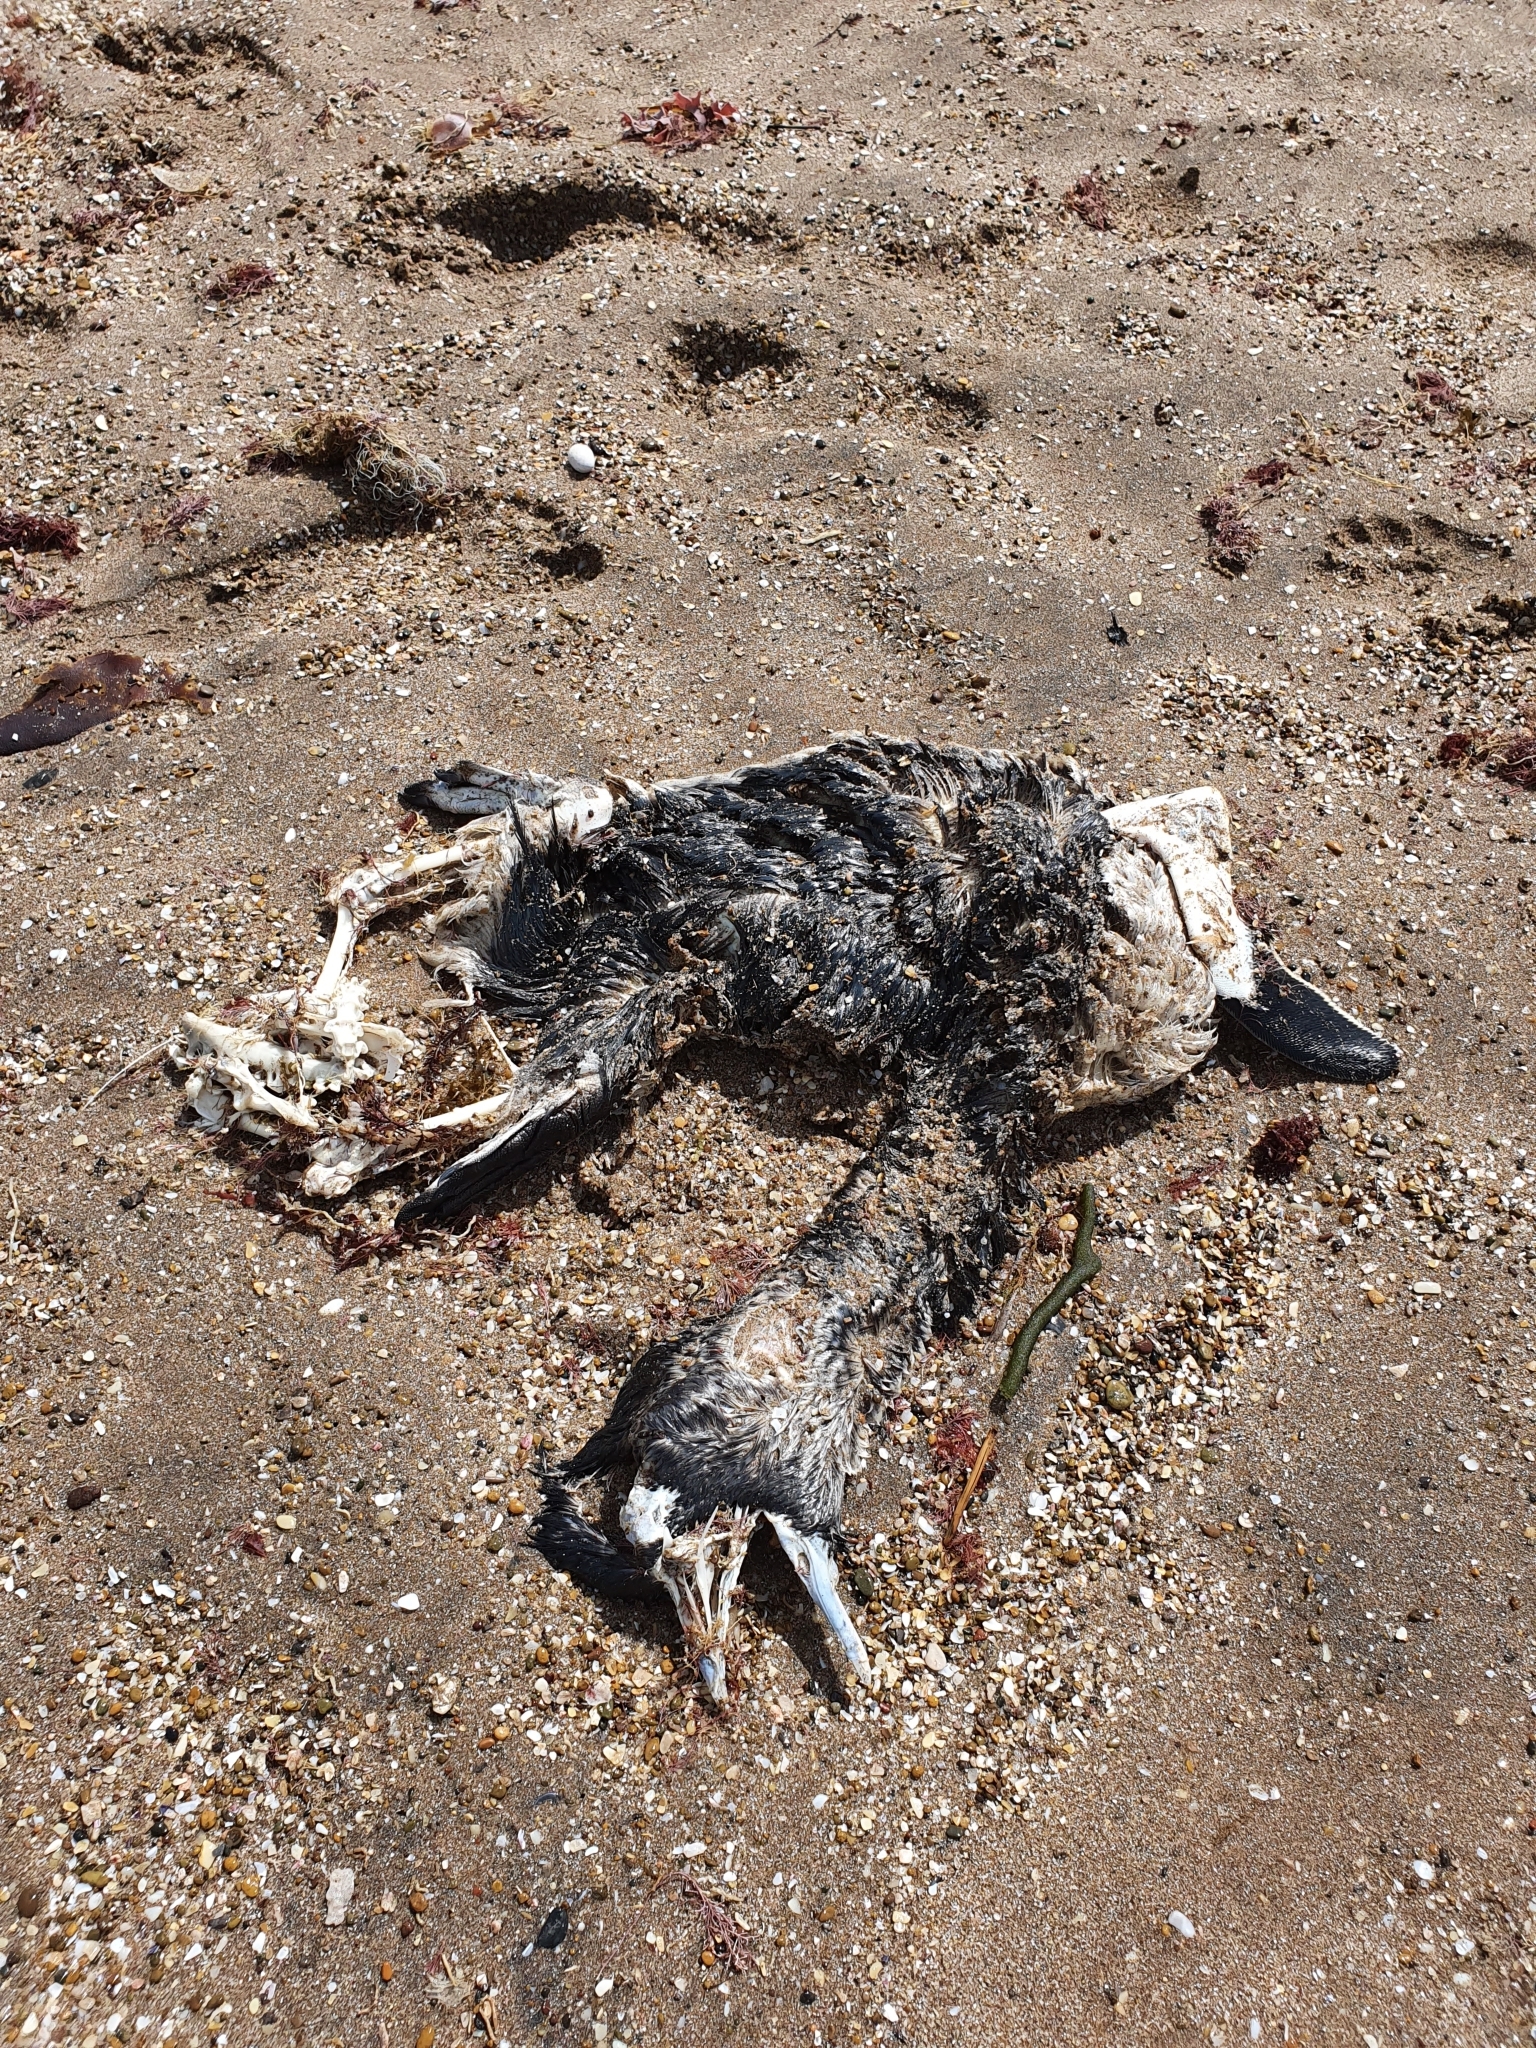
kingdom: Animalia
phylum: Chordata
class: Aves
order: Sphenisciformes
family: Spheniscidae
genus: Spheniscus
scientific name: Spheniscus magellanicus
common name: Magellanic penguin
